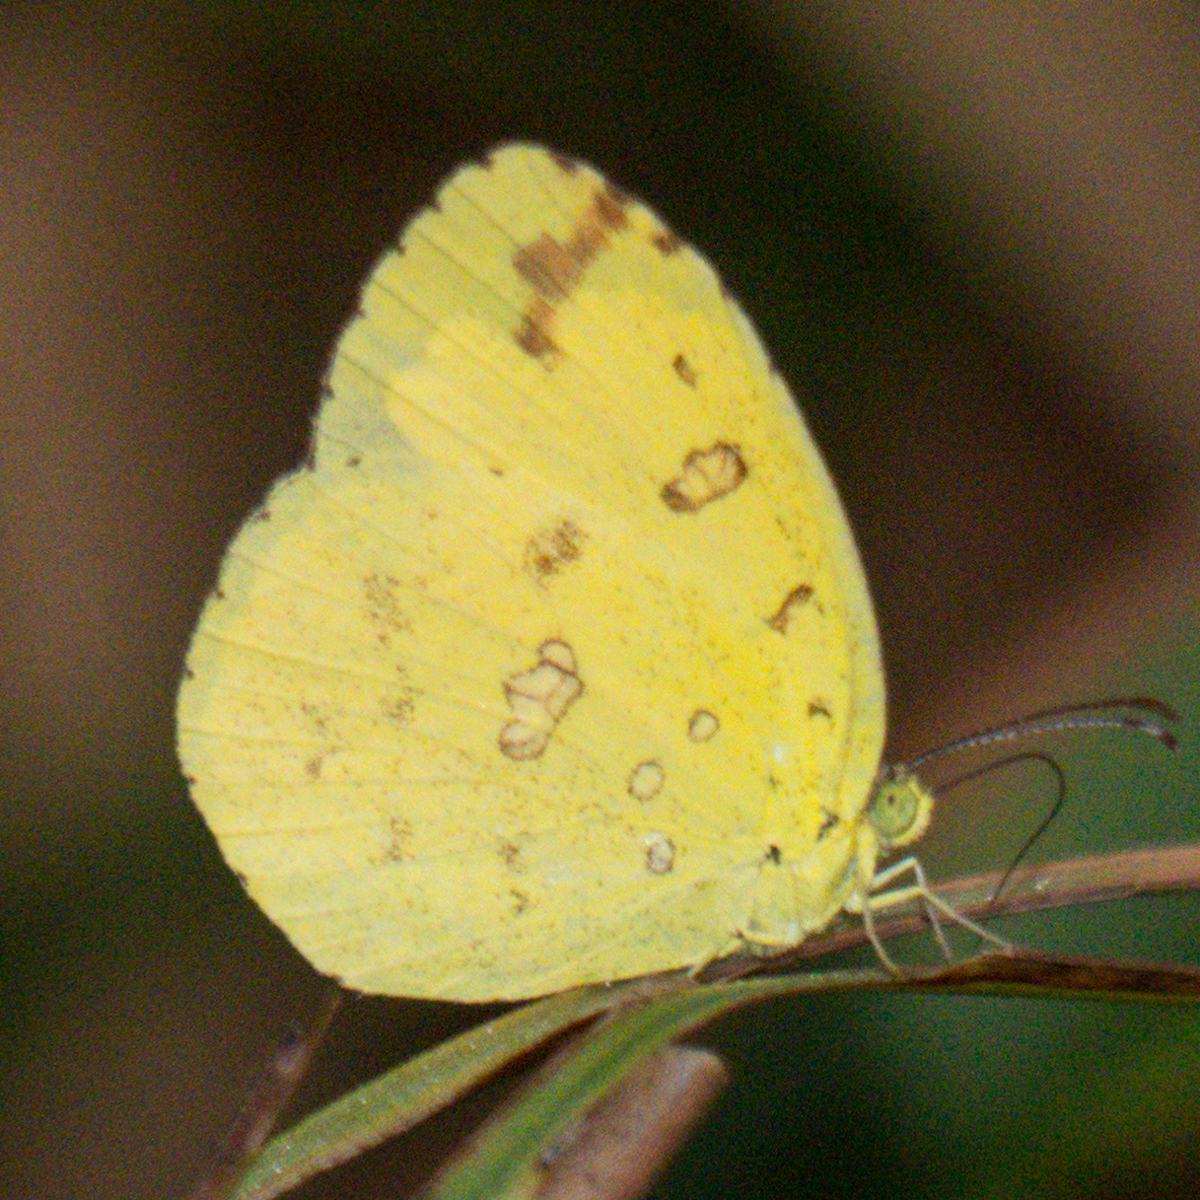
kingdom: Animalia
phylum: Arthropoda
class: Insecta
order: Lepidoptera
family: Pieridae
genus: Eurema
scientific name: Eurema hecabe
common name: Pale grass yellow
